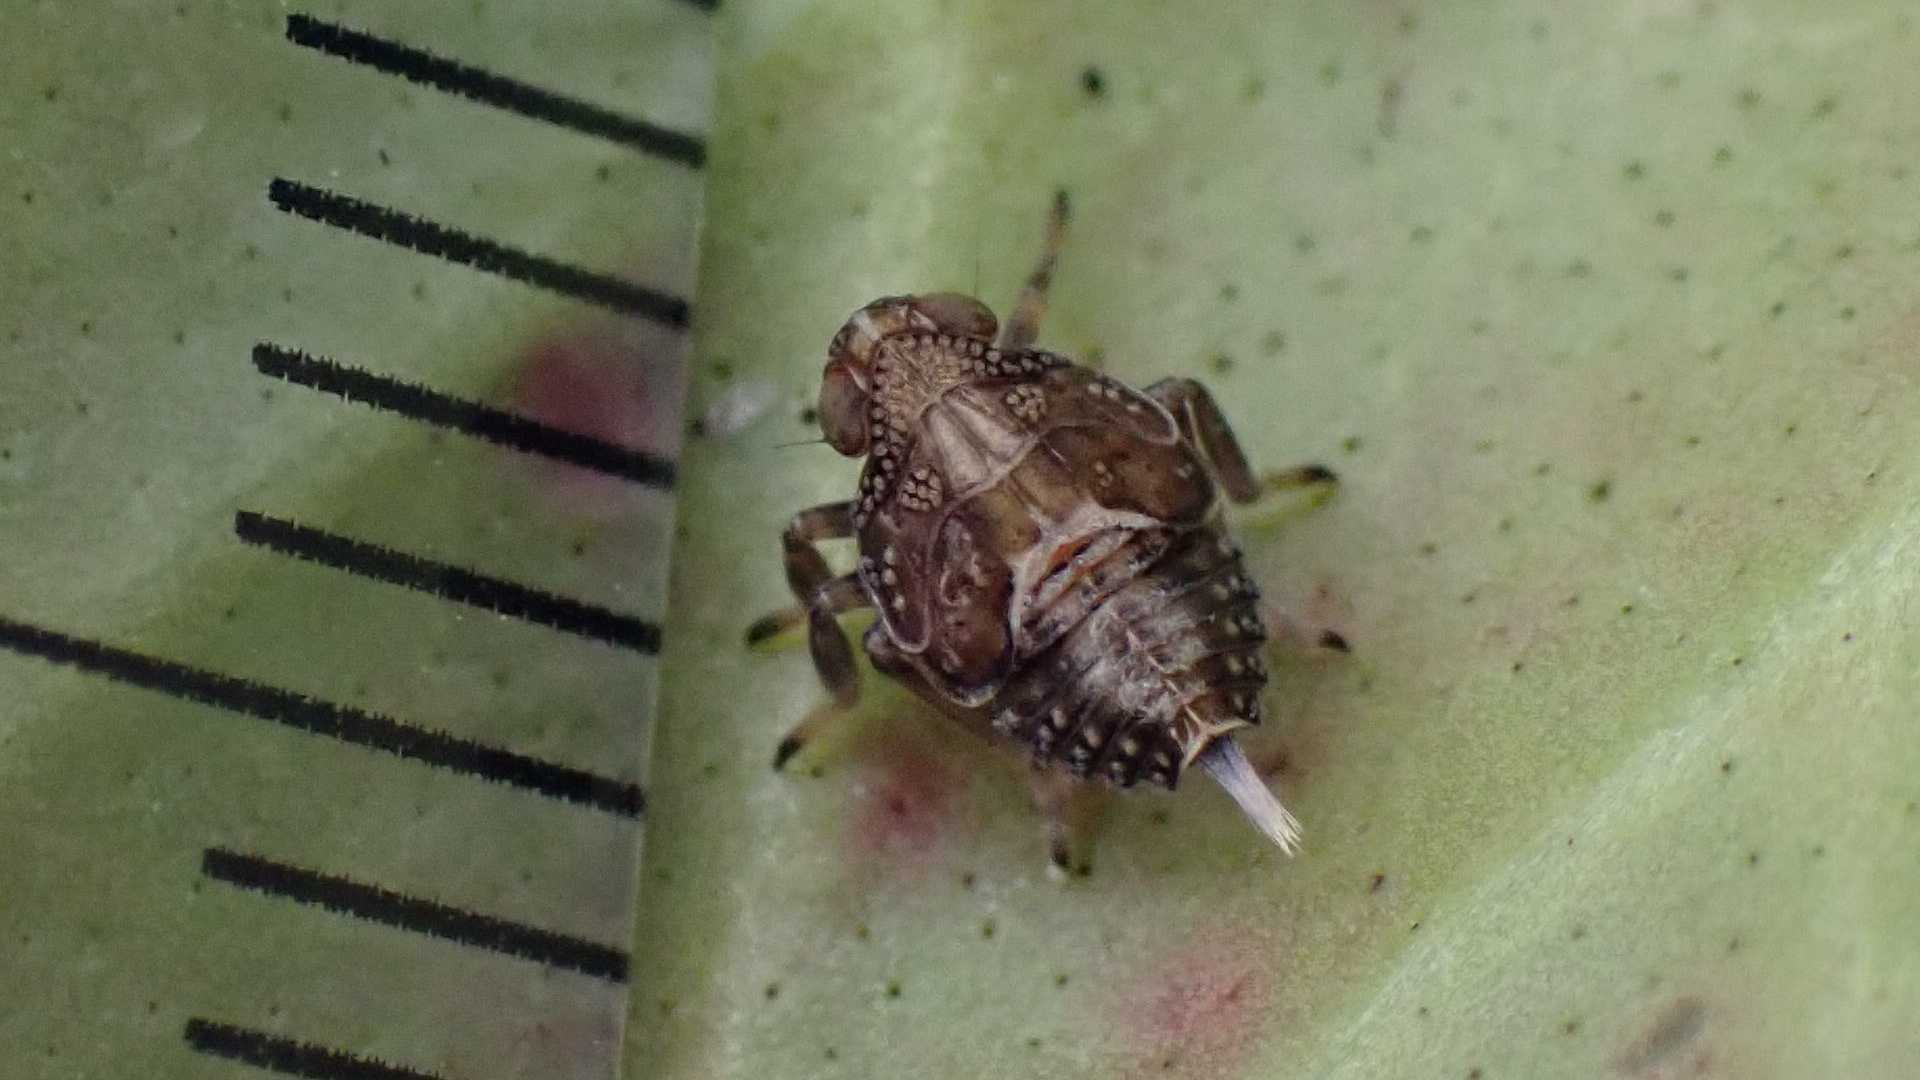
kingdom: Animalia
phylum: Arthropoda
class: Insecta
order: Hemiptera
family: Issidae
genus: Issus
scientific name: Issus coleoptratus
